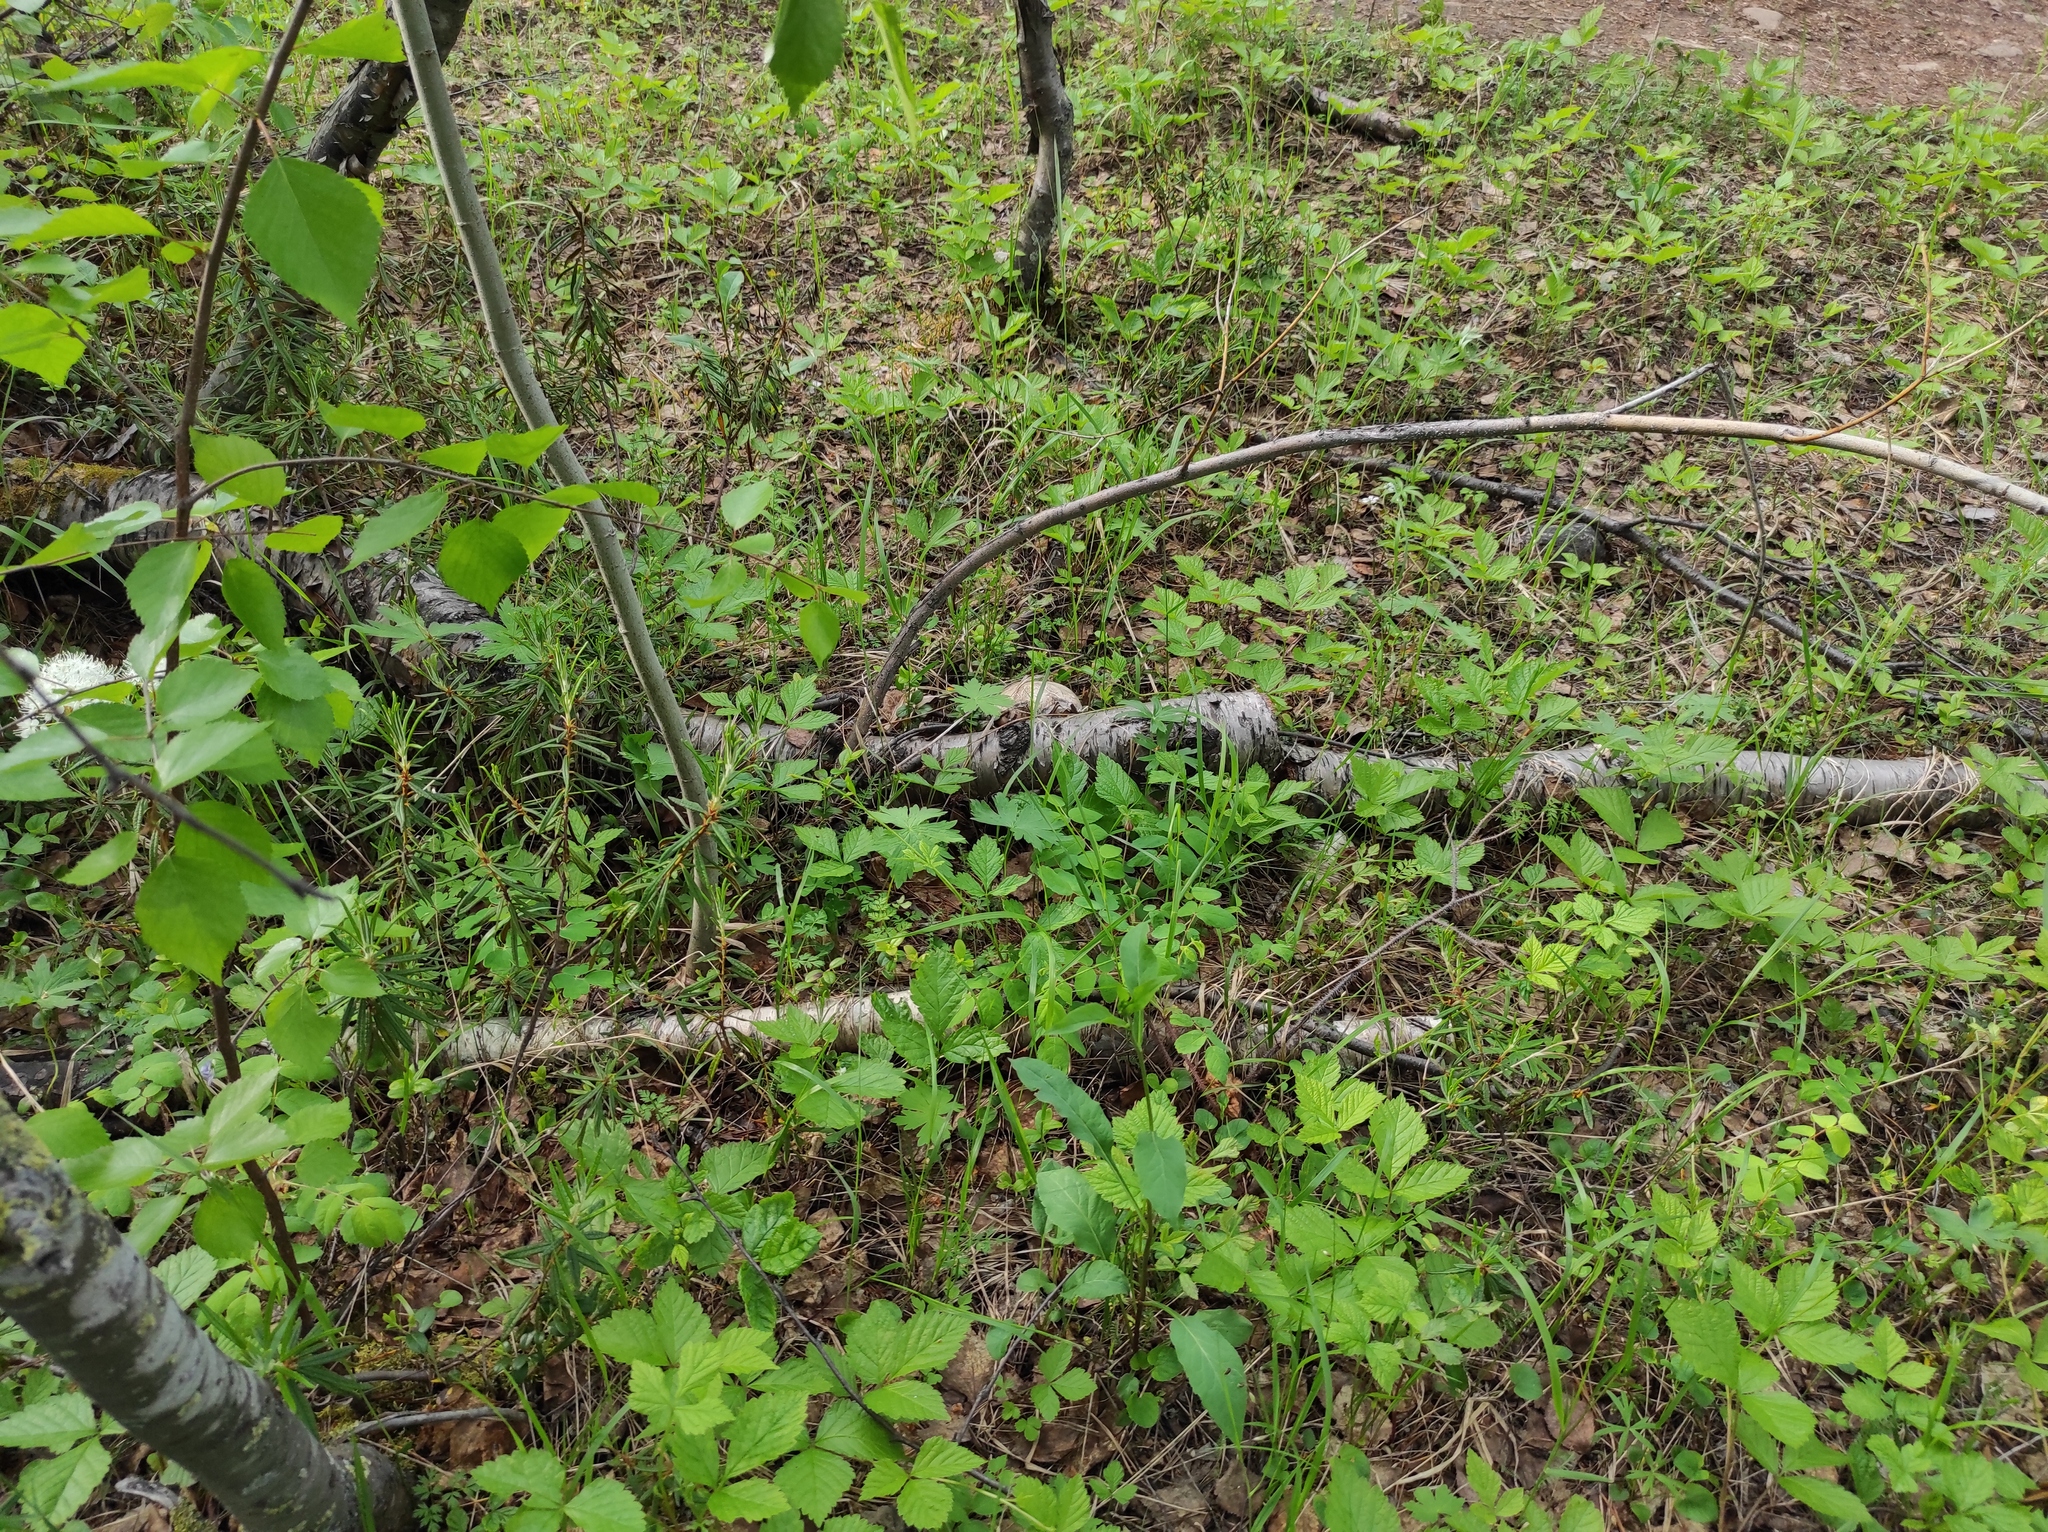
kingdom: Plantae
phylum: Tracheophyta
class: Magnoliopsida
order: Ericales
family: Ericaceae
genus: Rhododendron
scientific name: Rhododendron tomentosum
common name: Marsh labrador tea
